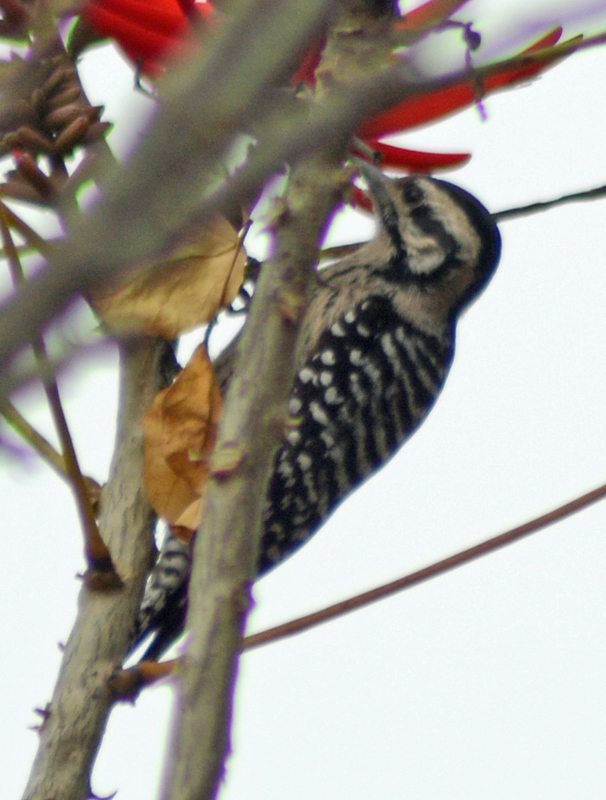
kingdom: Animalia
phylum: Chordata
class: Aves
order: Piciformes
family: Picidae
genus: Dryobates
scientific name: Dryobates scalaris
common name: Ladder-backed woodpecker
